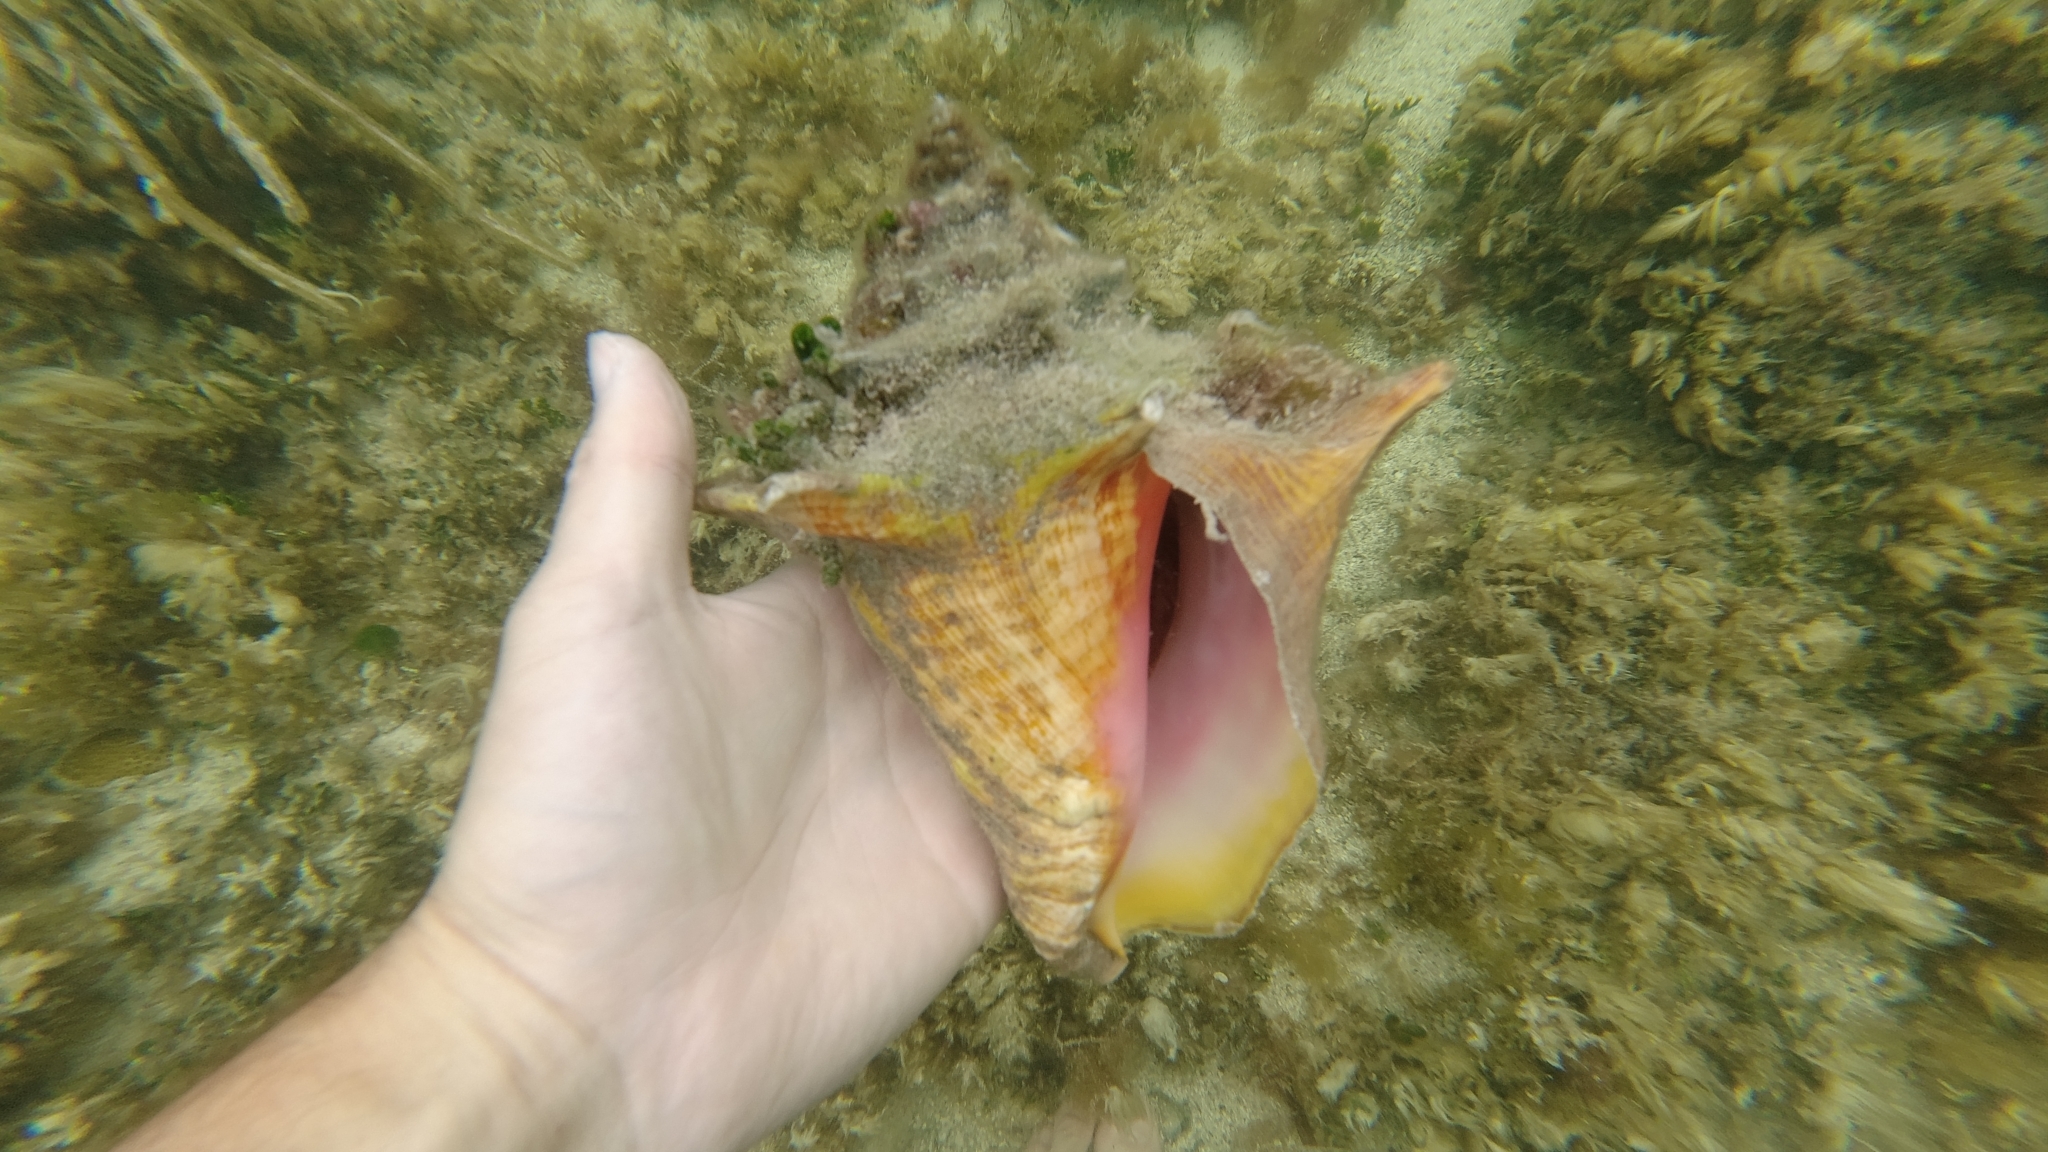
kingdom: Animalia
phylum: Mollusca
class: Gastropoda
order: Littorinimorpha
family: Strombidae
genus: Aliger
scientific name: Aliger gigas
